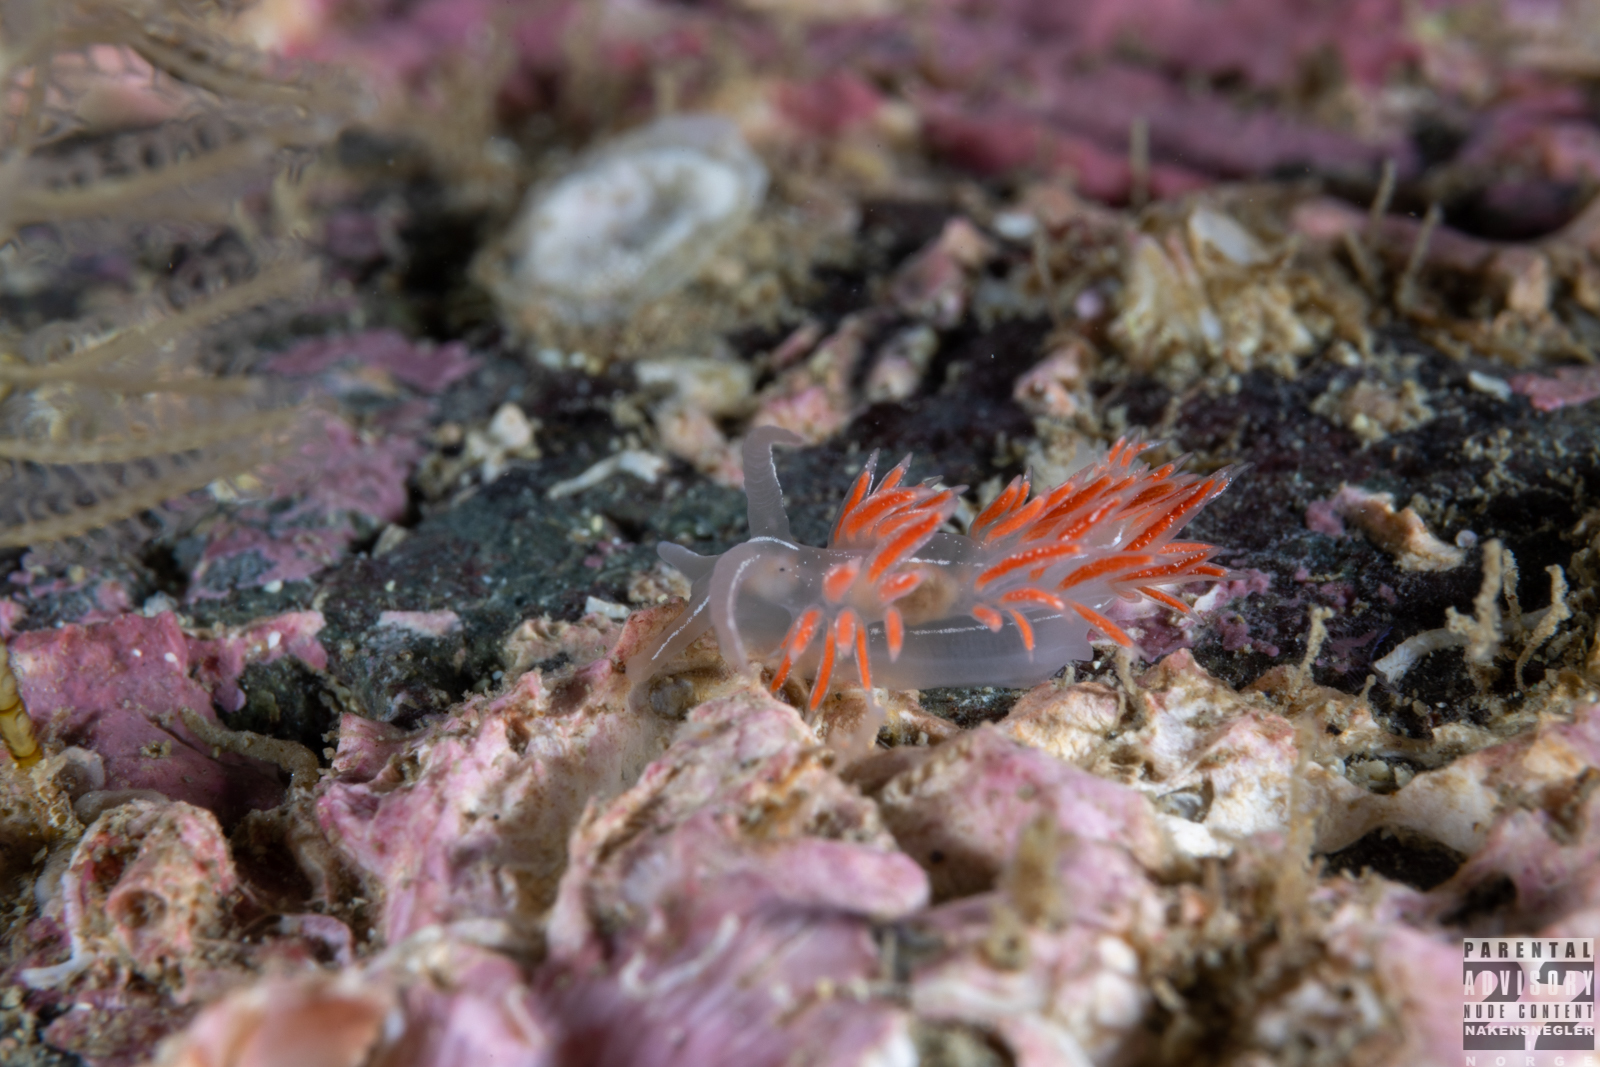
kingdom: Animalia
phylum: Mollusca
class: Gastropoda
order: Nudibranchia
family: Coryphellidae
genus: Coryphella
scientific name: Coryphella chriskaugei
